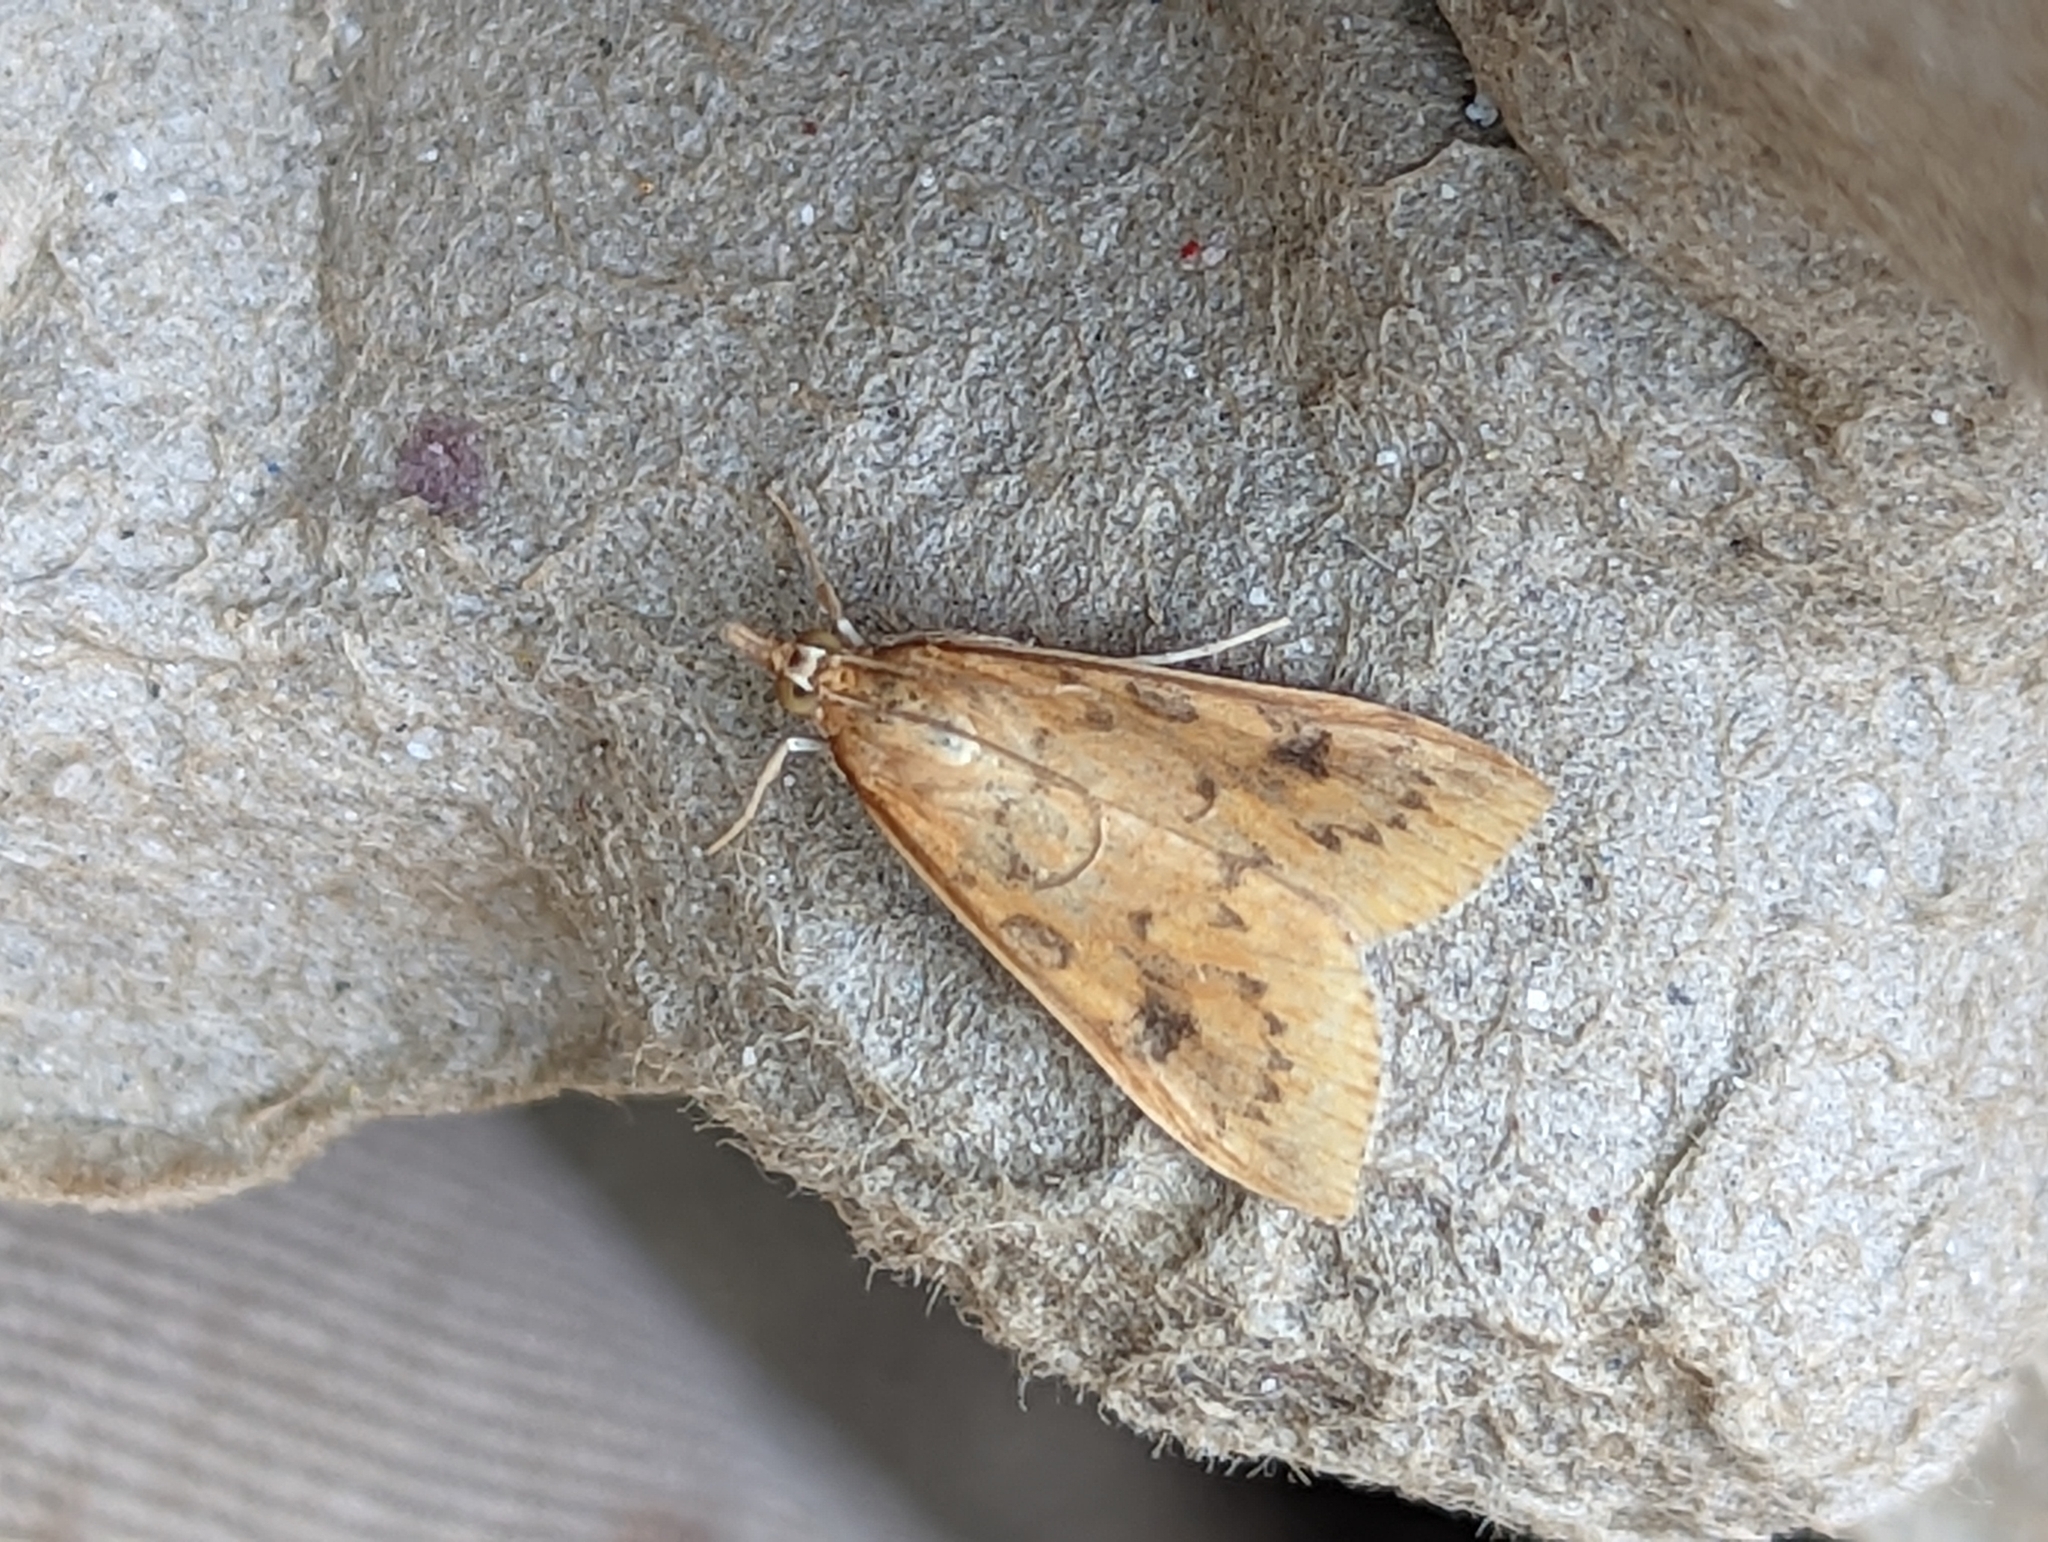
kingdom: Animalia
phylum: Arthropoda
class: Insecta
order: Lepidoptera
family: Crambidae
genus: Udea
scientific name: Udea ferrugalis
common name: Rusty dot
